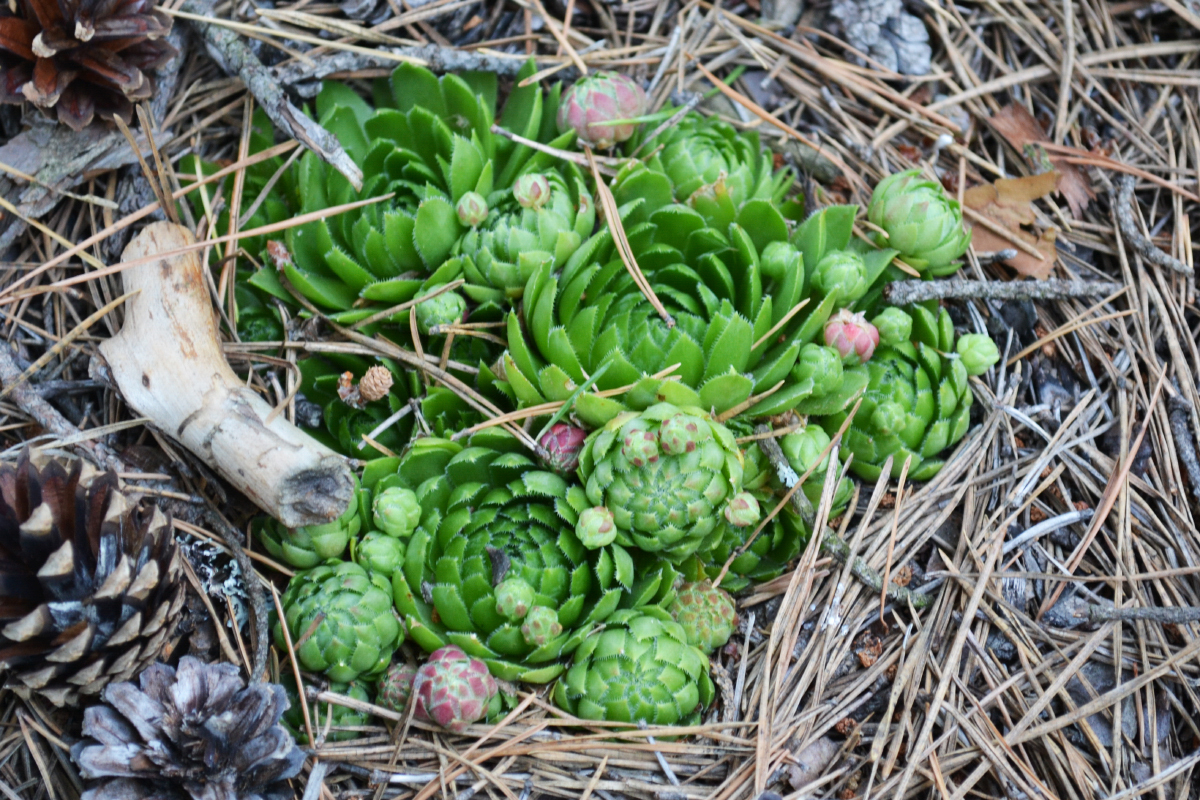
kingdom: Plantae
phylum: Tracheophyta
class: Magnoliopsida
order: Saxifragales
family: Crassulaceae
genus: Sempervivum
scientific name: Sempervivum globiferum
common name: Rolling hen-and-chicks
